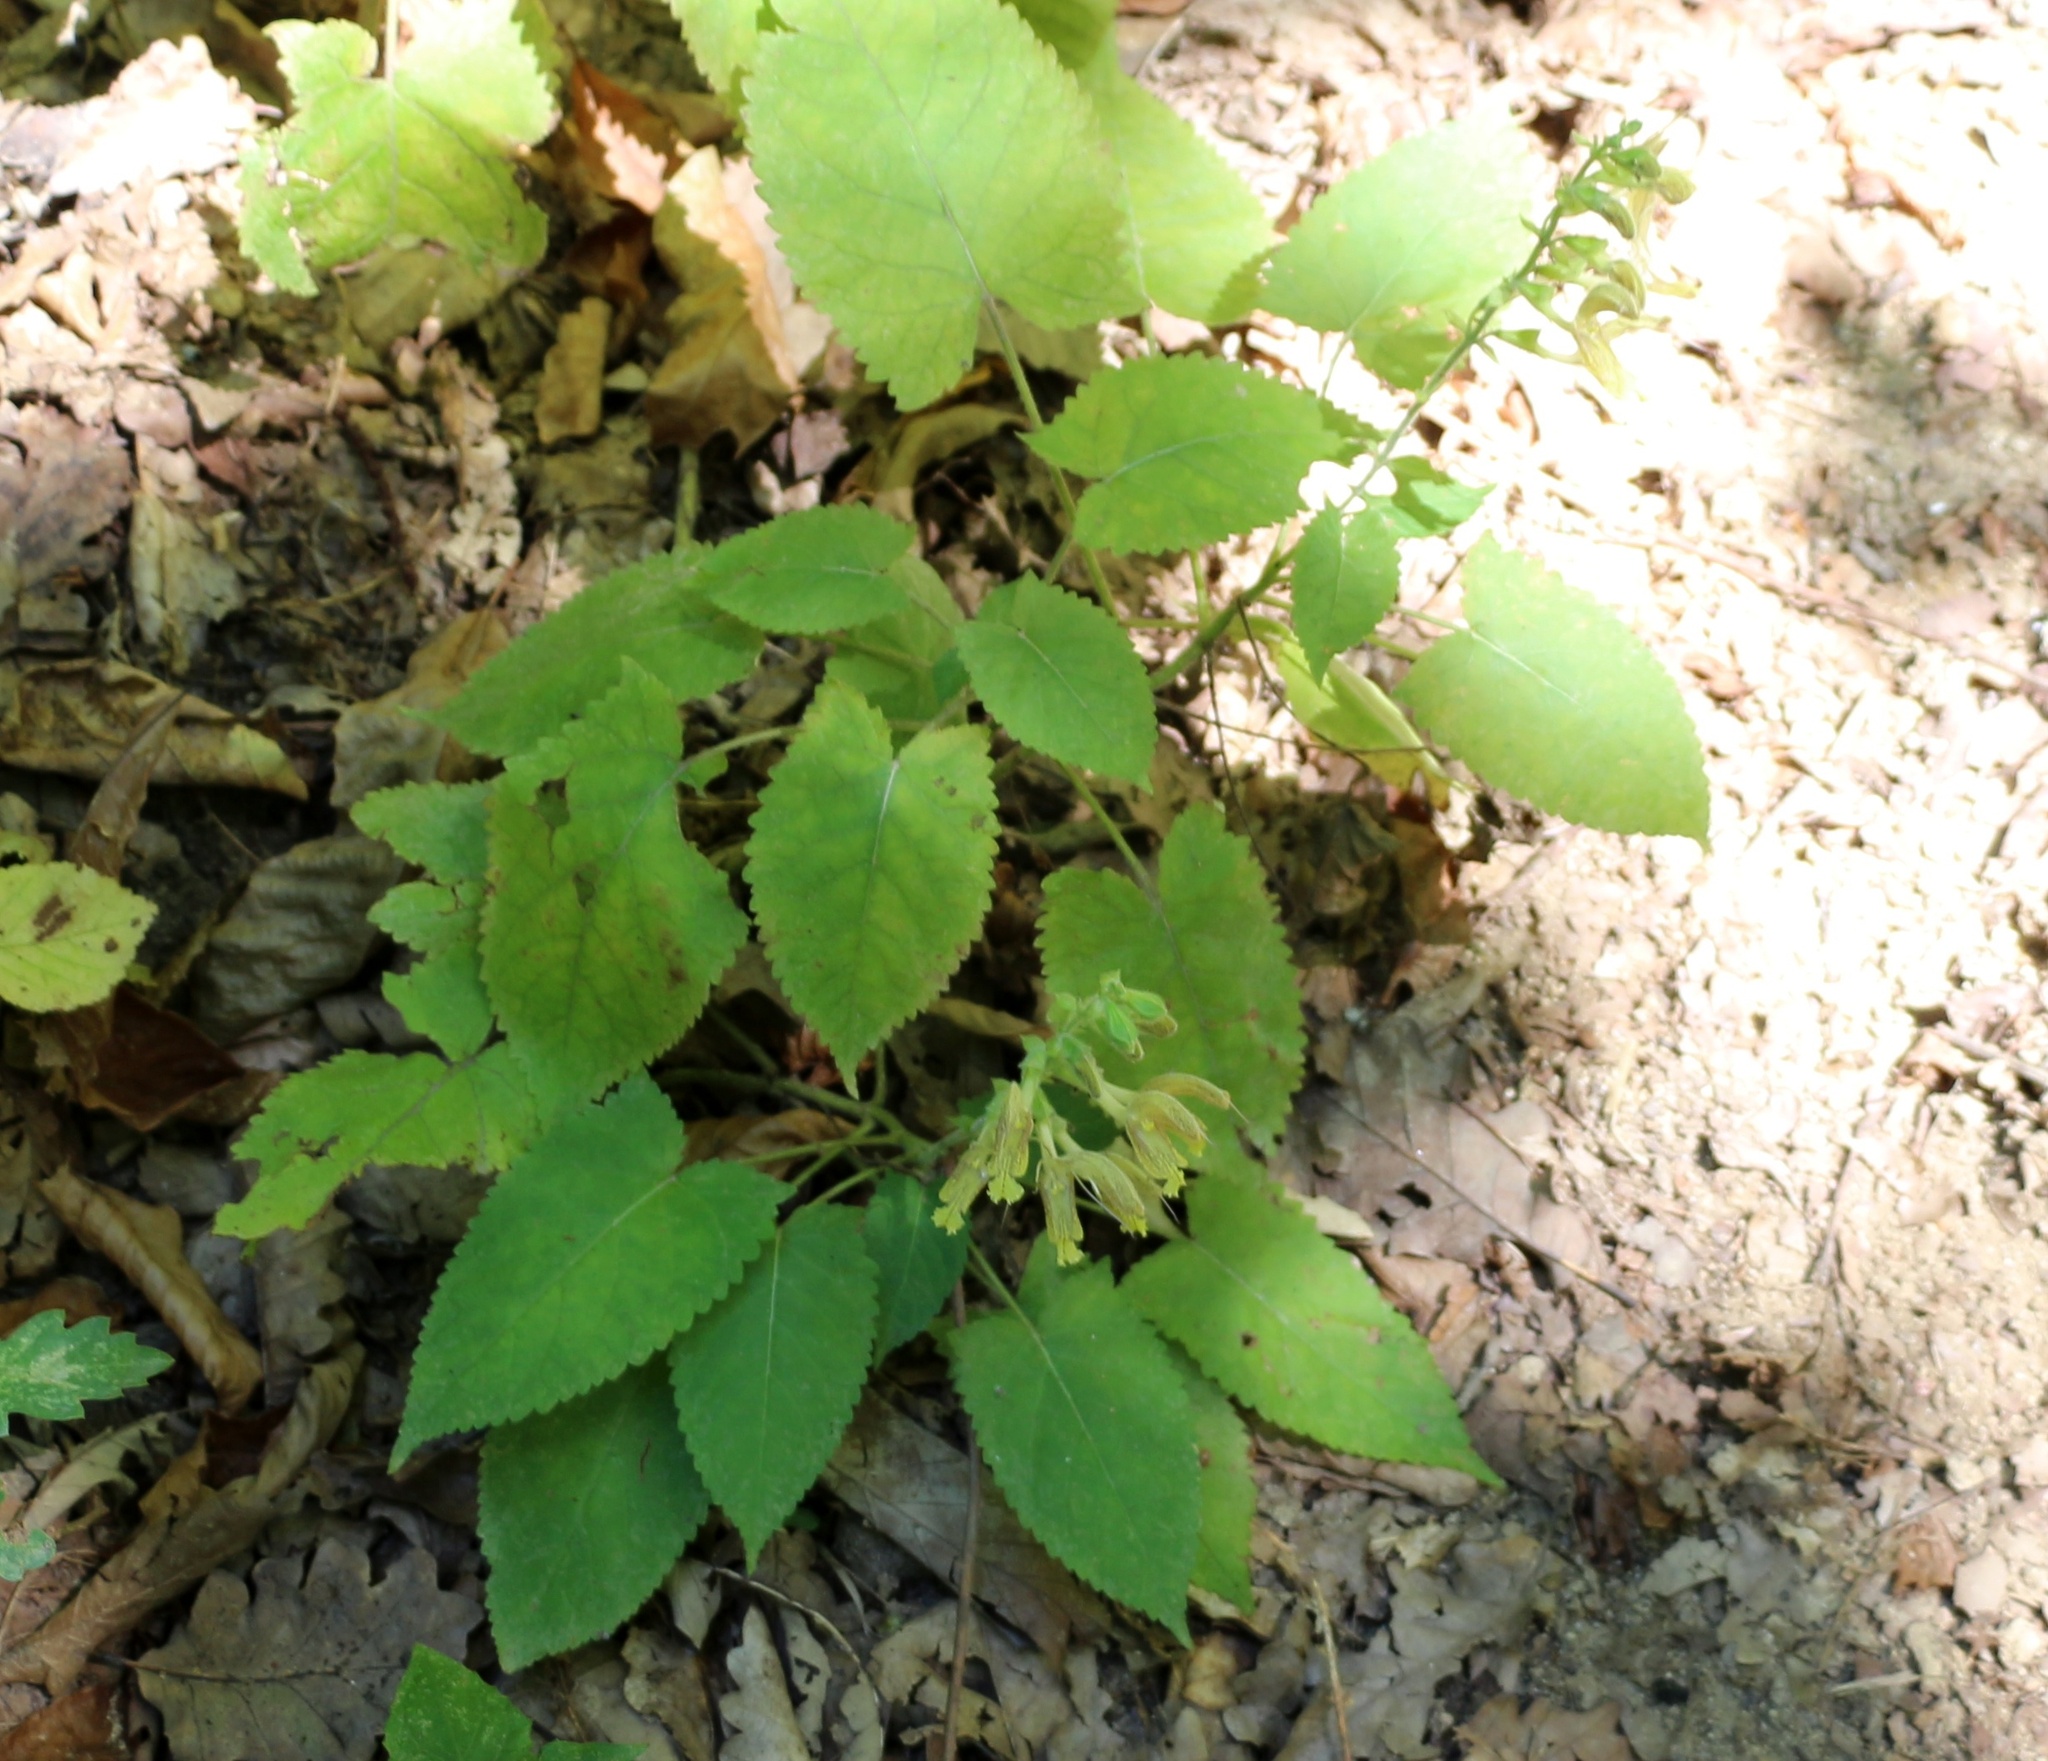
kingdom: Plantae
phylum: Tracheophyta
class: Magnoliopsida
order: Lamiales
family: Lamiaceae
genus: Salvia
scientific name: Salvia glutinosa
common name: Sticky clary
